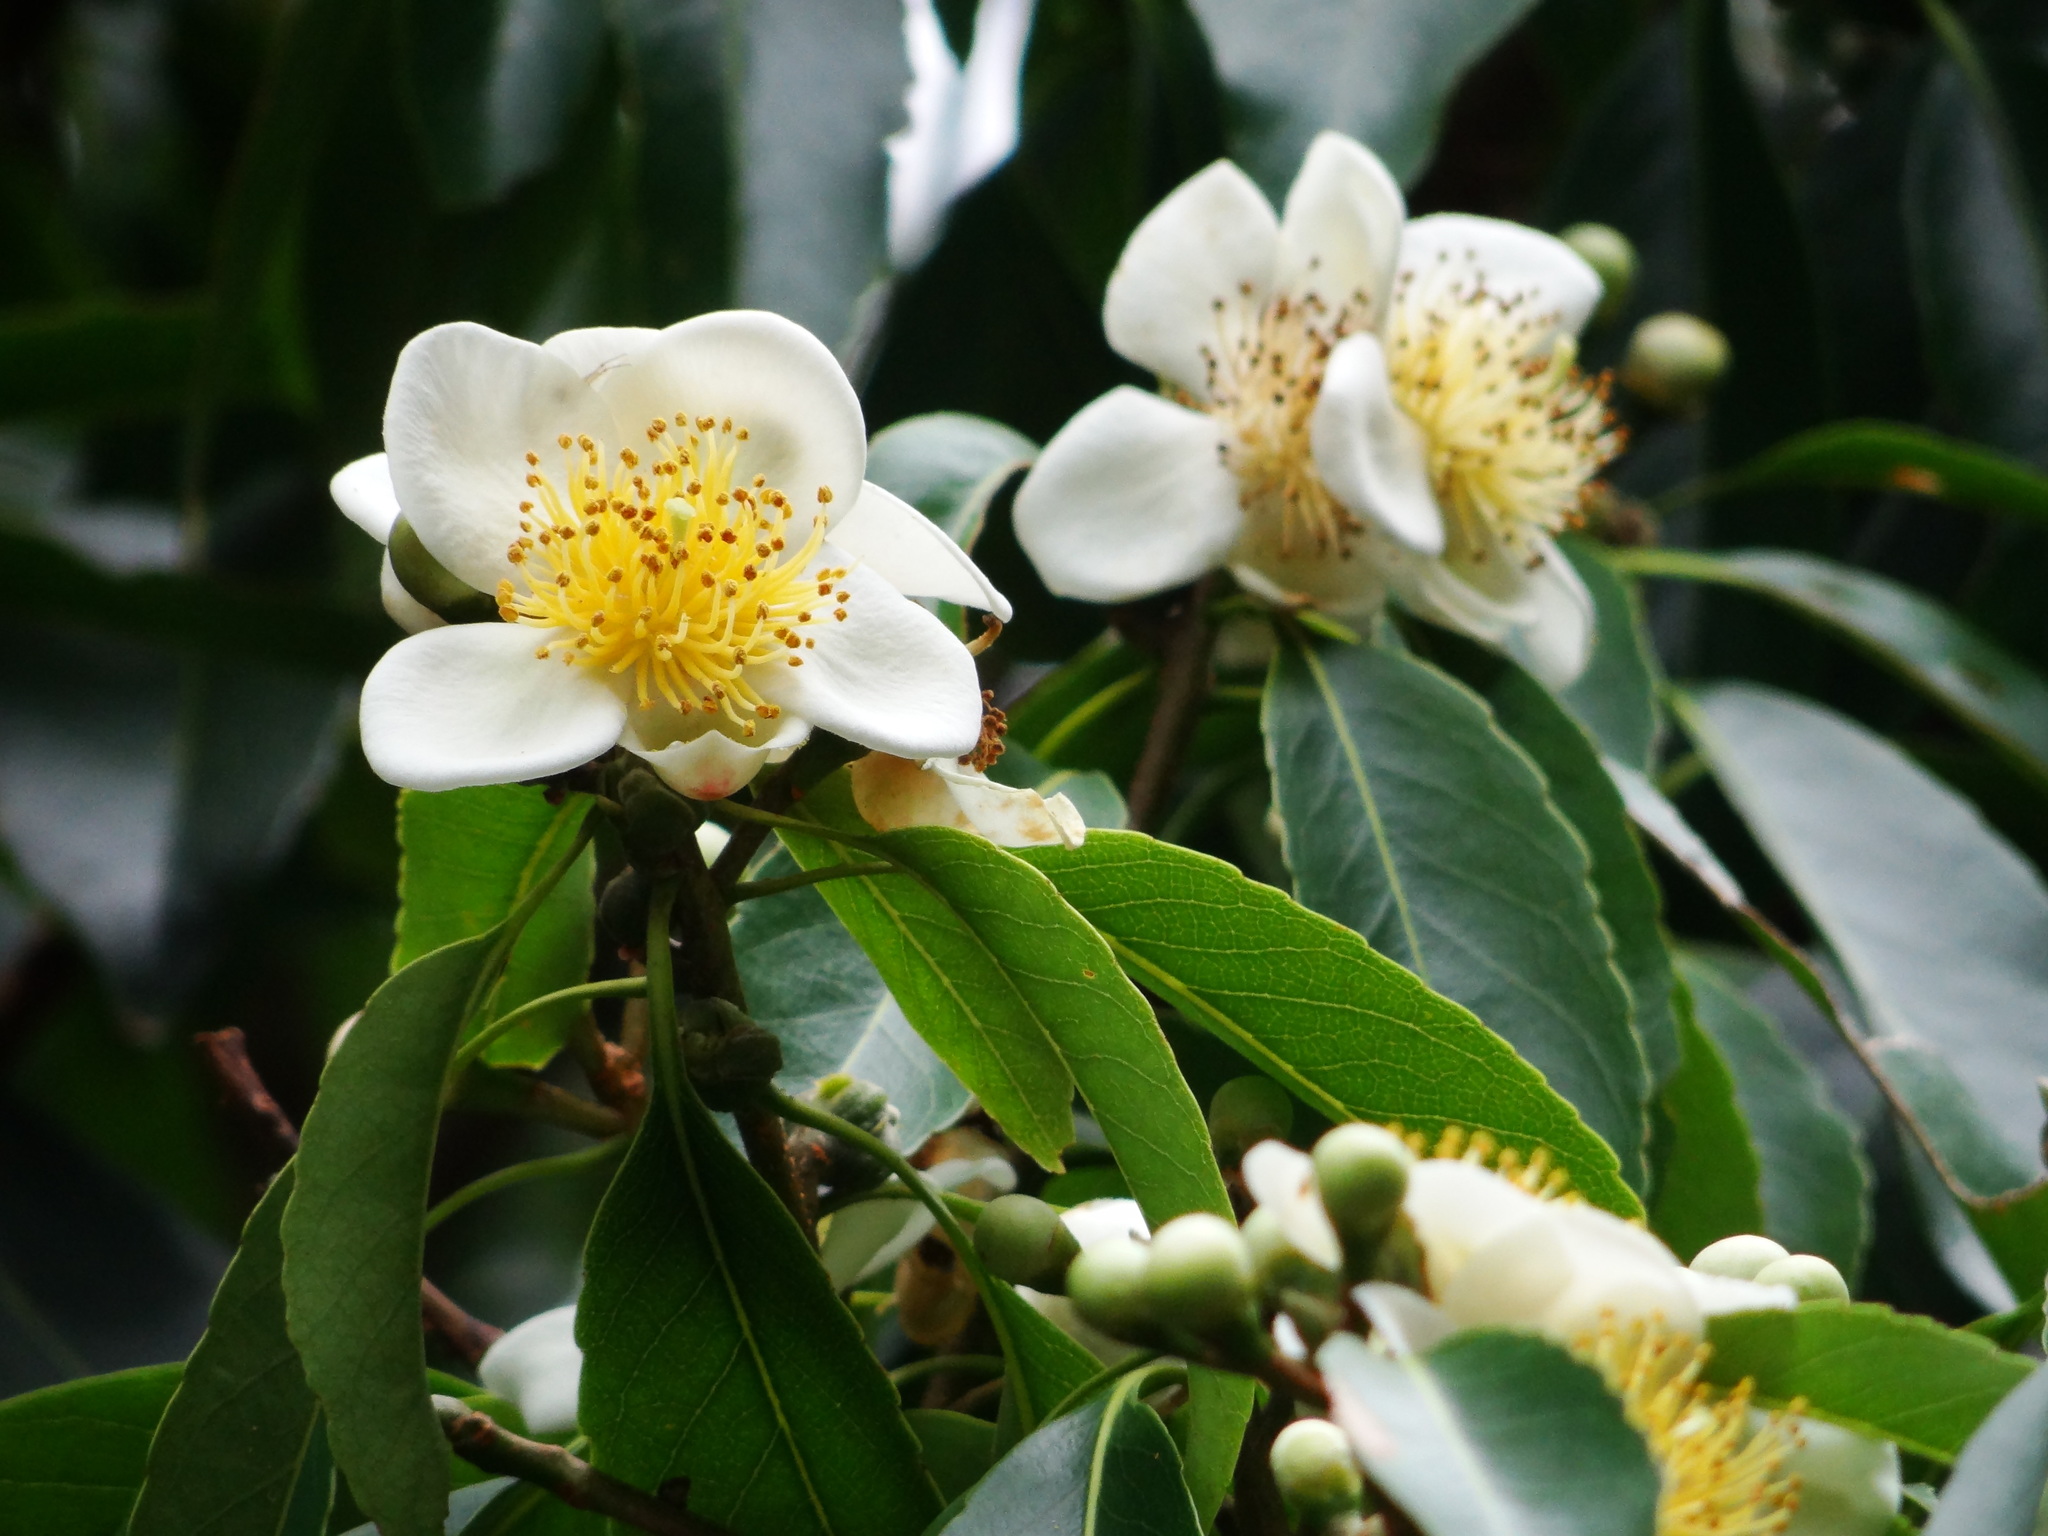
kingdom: Plantae
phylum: Tracheophyta
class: Magnoliopsida
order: Ericales
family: Theaceae
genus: Schima
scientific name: Schima superba
